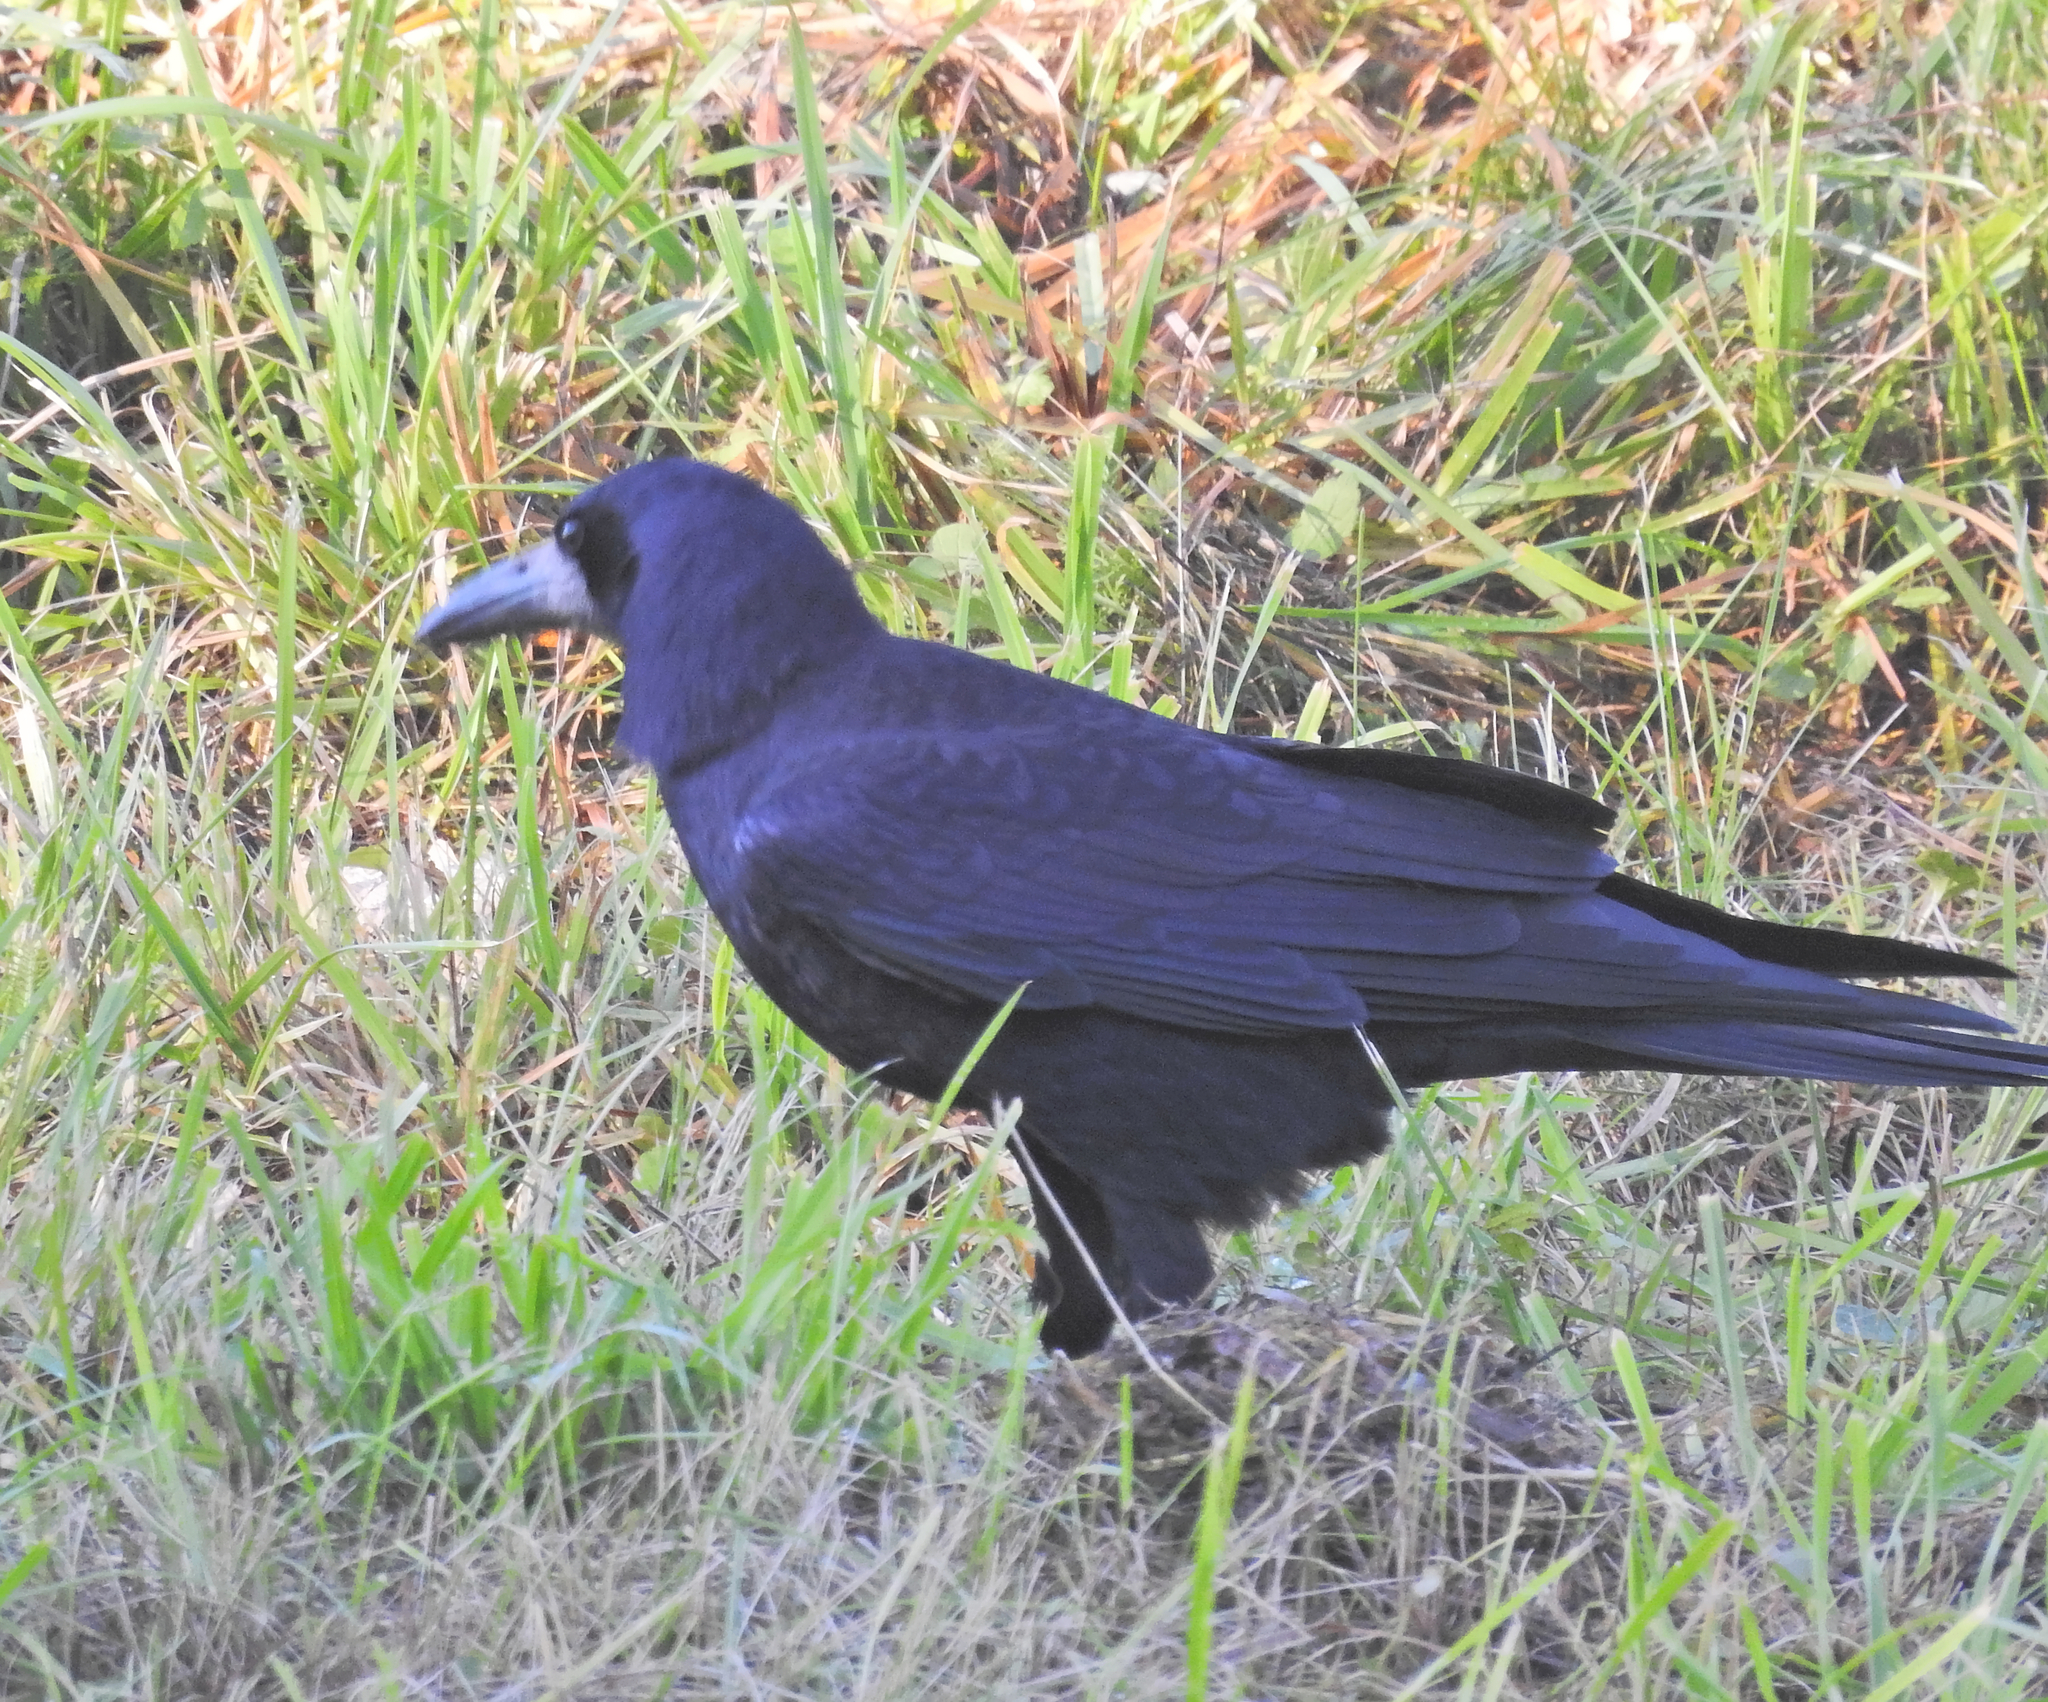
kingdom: Animalia
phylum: Chordata
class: Aves
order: Passeriformes
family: Corvidae
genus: Corvus
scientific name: Corvus frugilegus
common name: Rook
